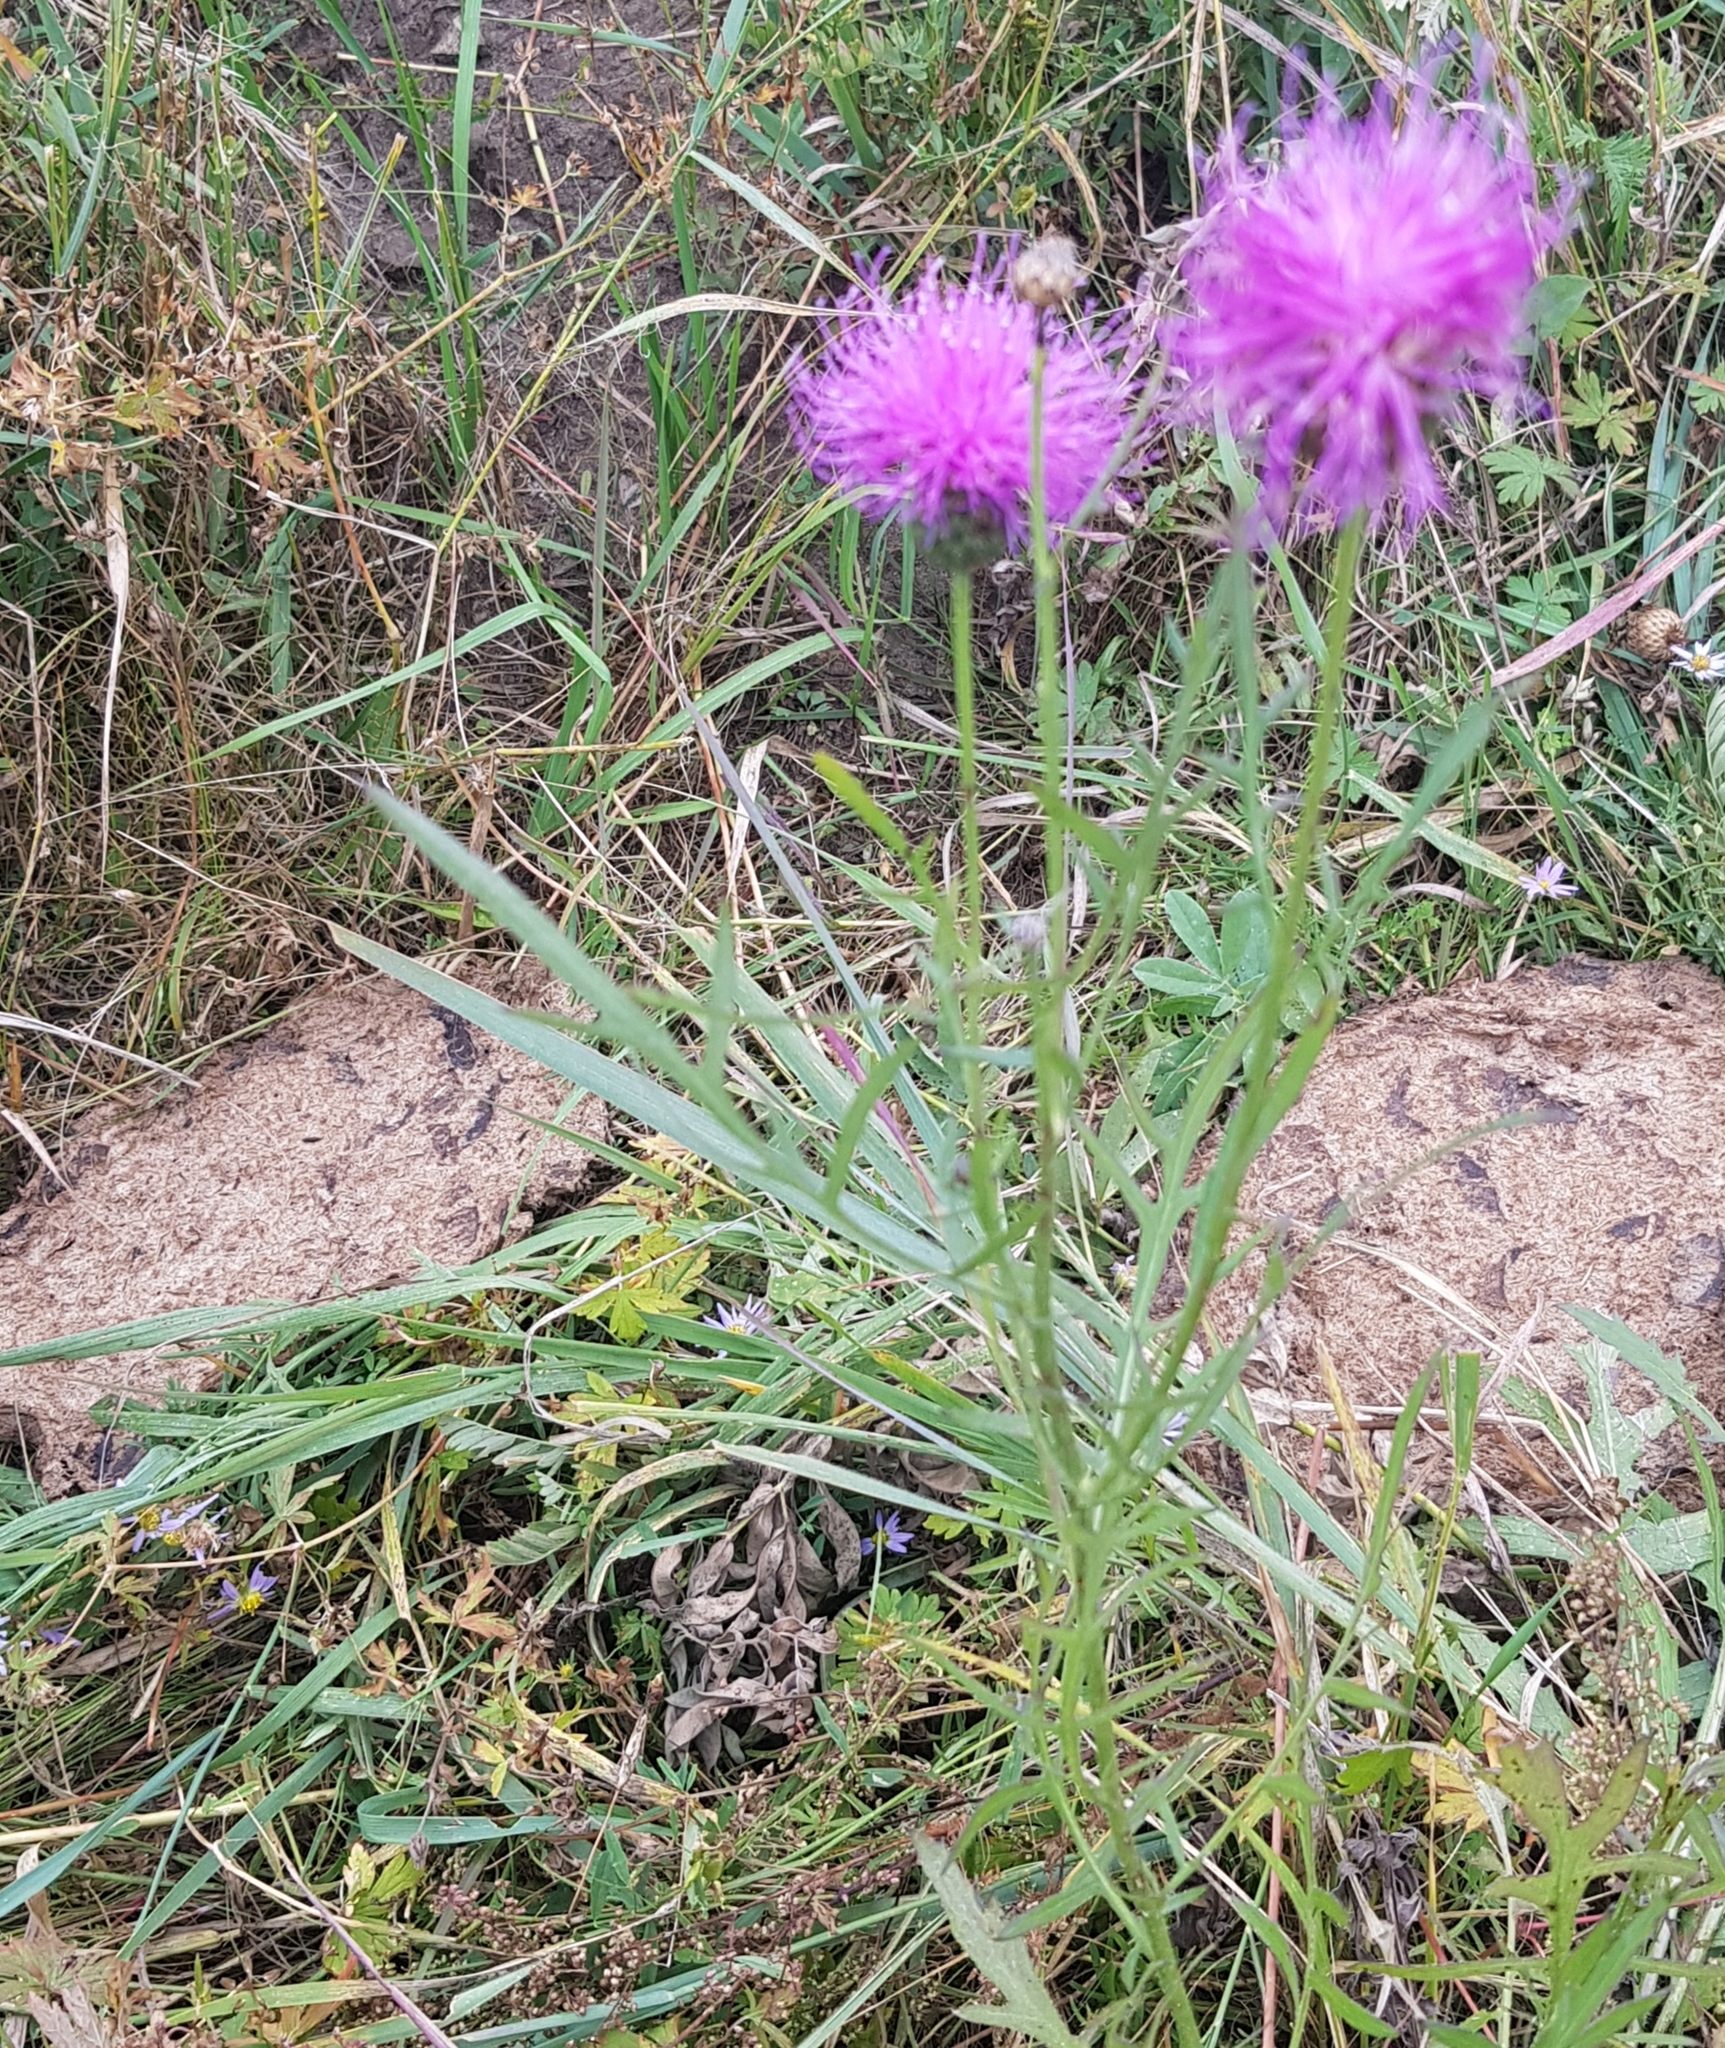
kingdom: Plantae
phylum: Tracheophyta
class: Magnoliopsida
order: Asterales
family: Asteraceae
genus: Klasea
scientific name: Klasea marginata
